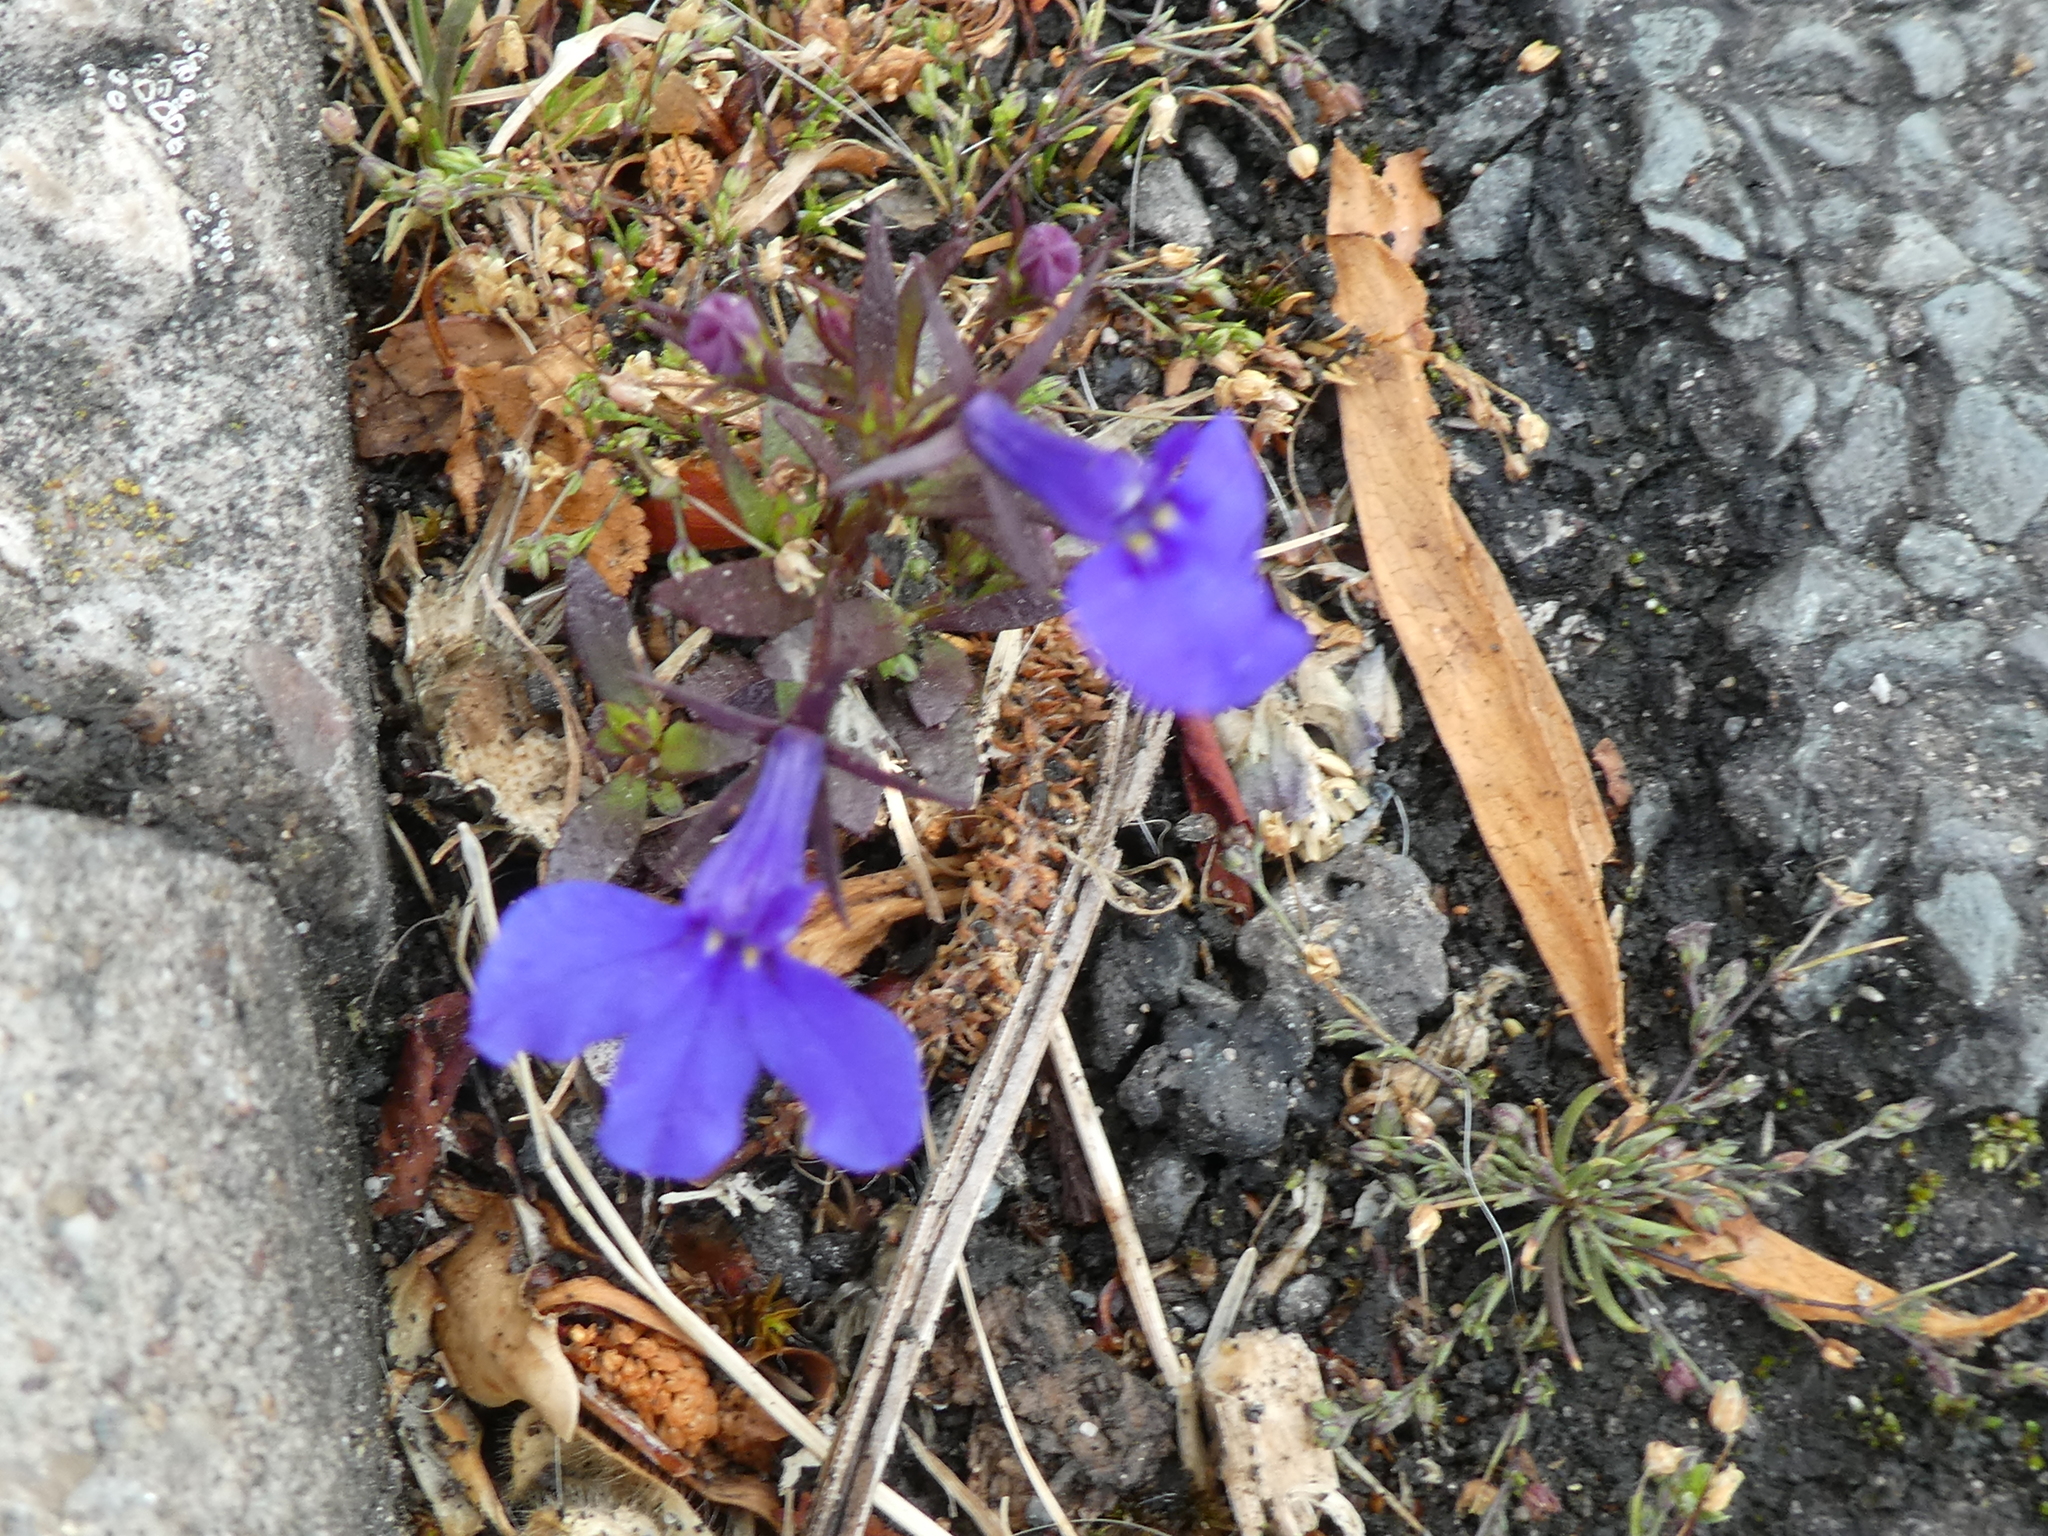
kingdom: Plantae
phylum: Tracheophyta
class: Magnoliopsida
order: Asterales
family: Campanulaceae
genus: Lobelia
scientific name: Lobelia erinus
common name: Edging lobelia
